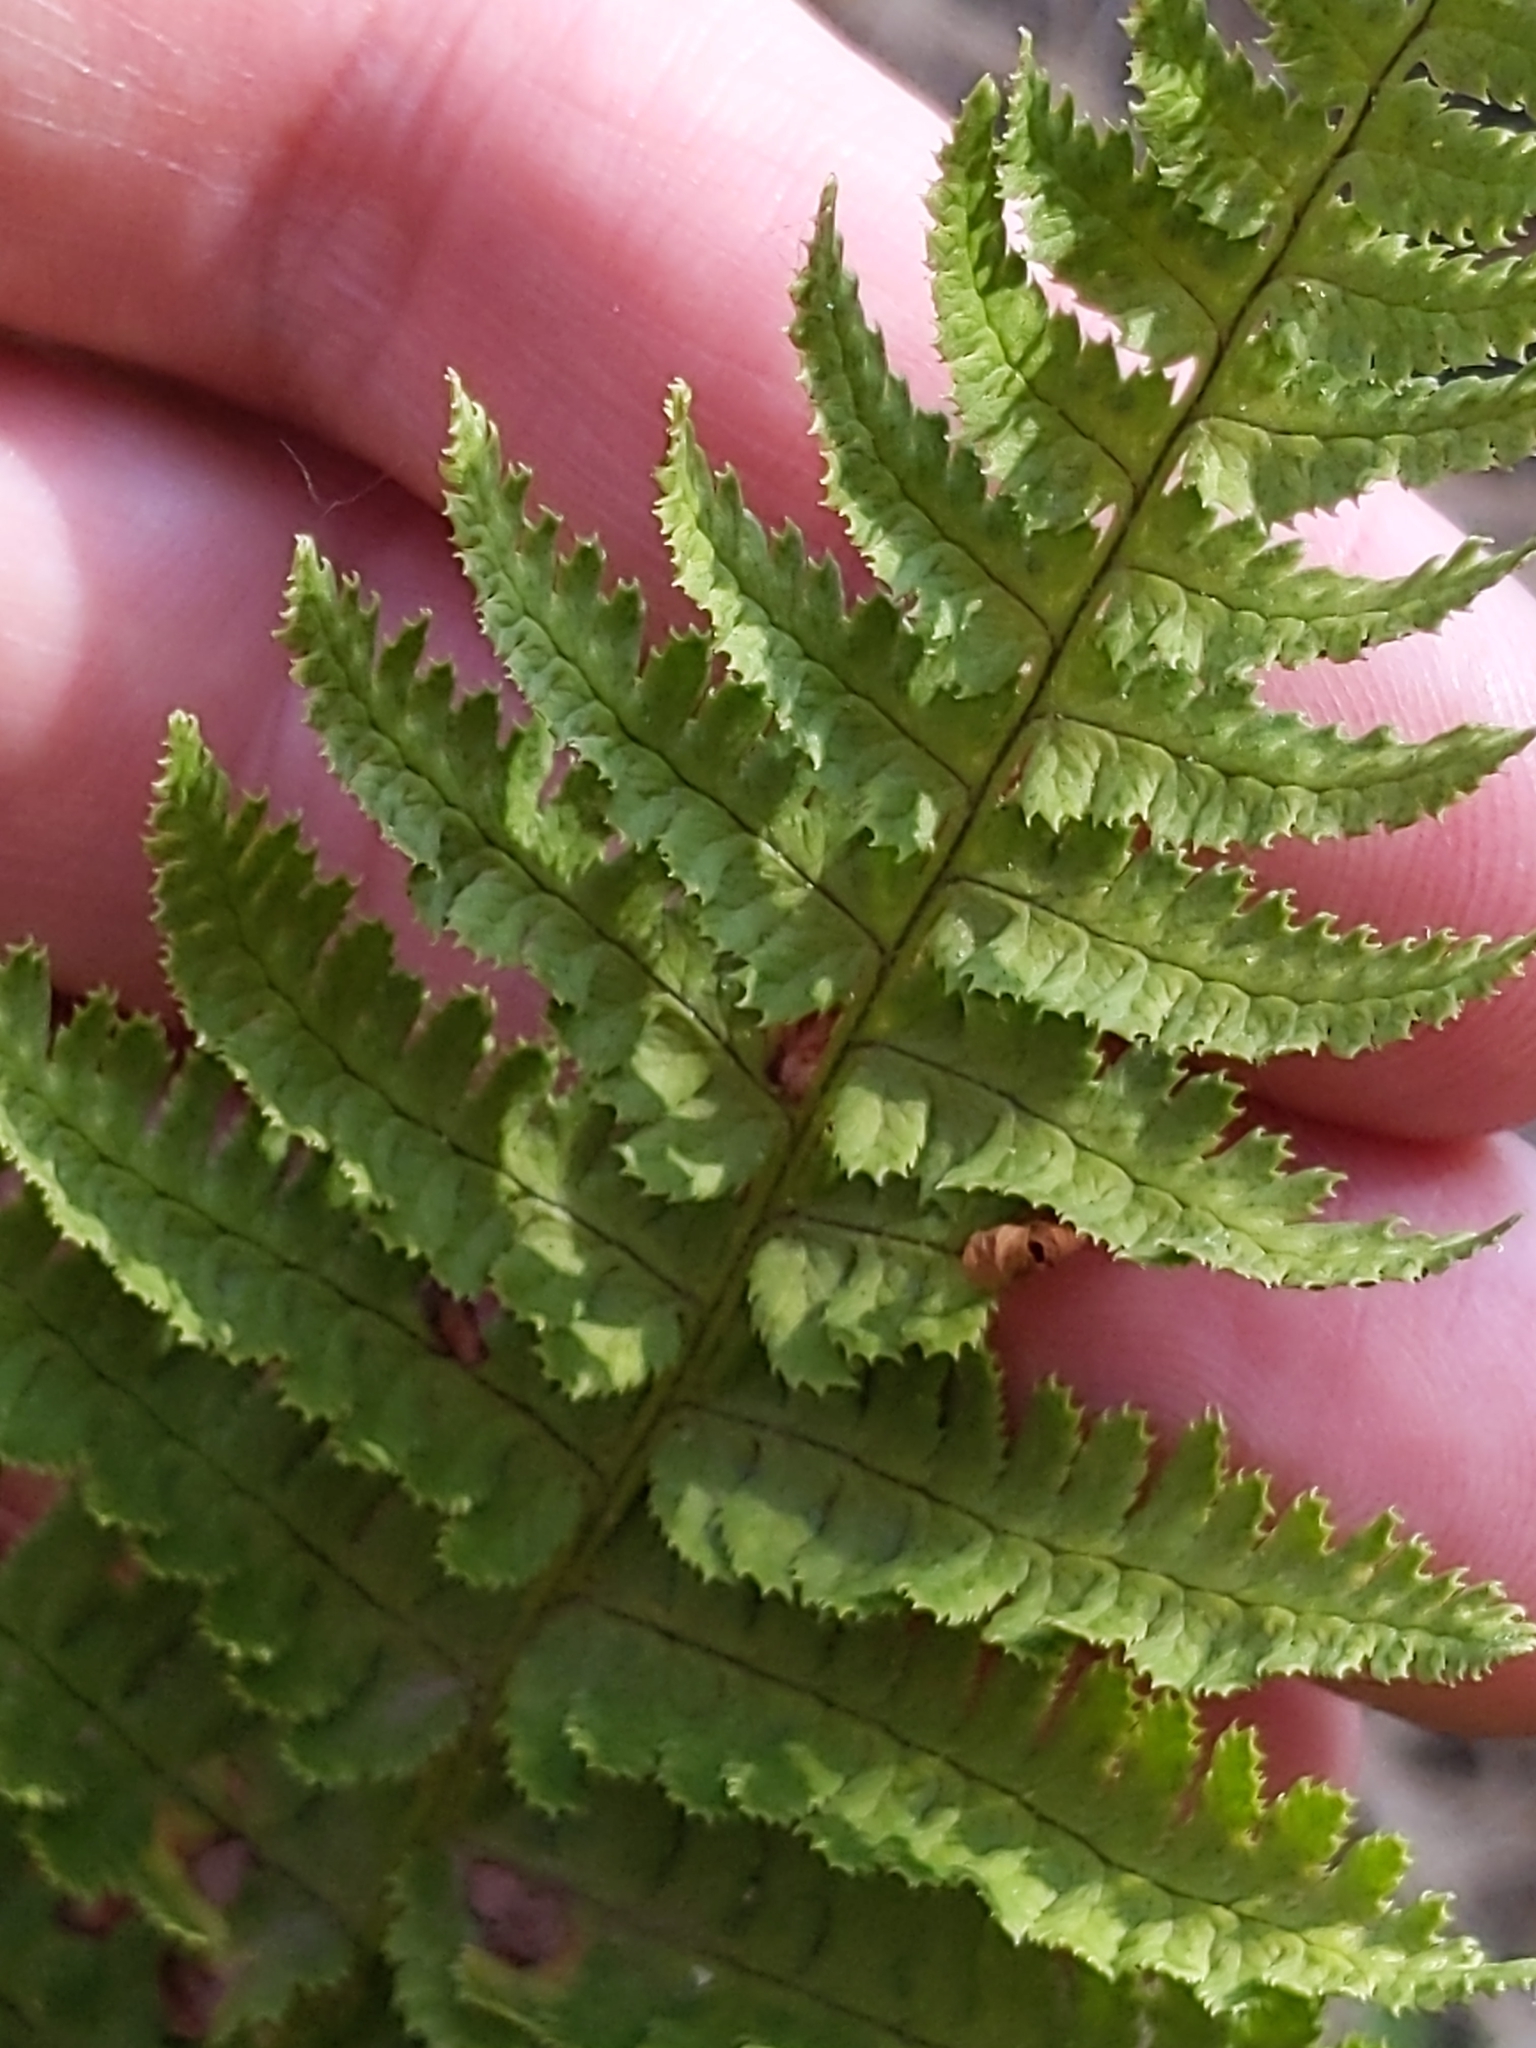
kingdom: Plantae
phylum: Tracheophyta
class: Polypodiopsida
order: Polypodiales
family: Dryopteridaceae
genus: Dryopteris
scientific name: Dryopteris arguta
